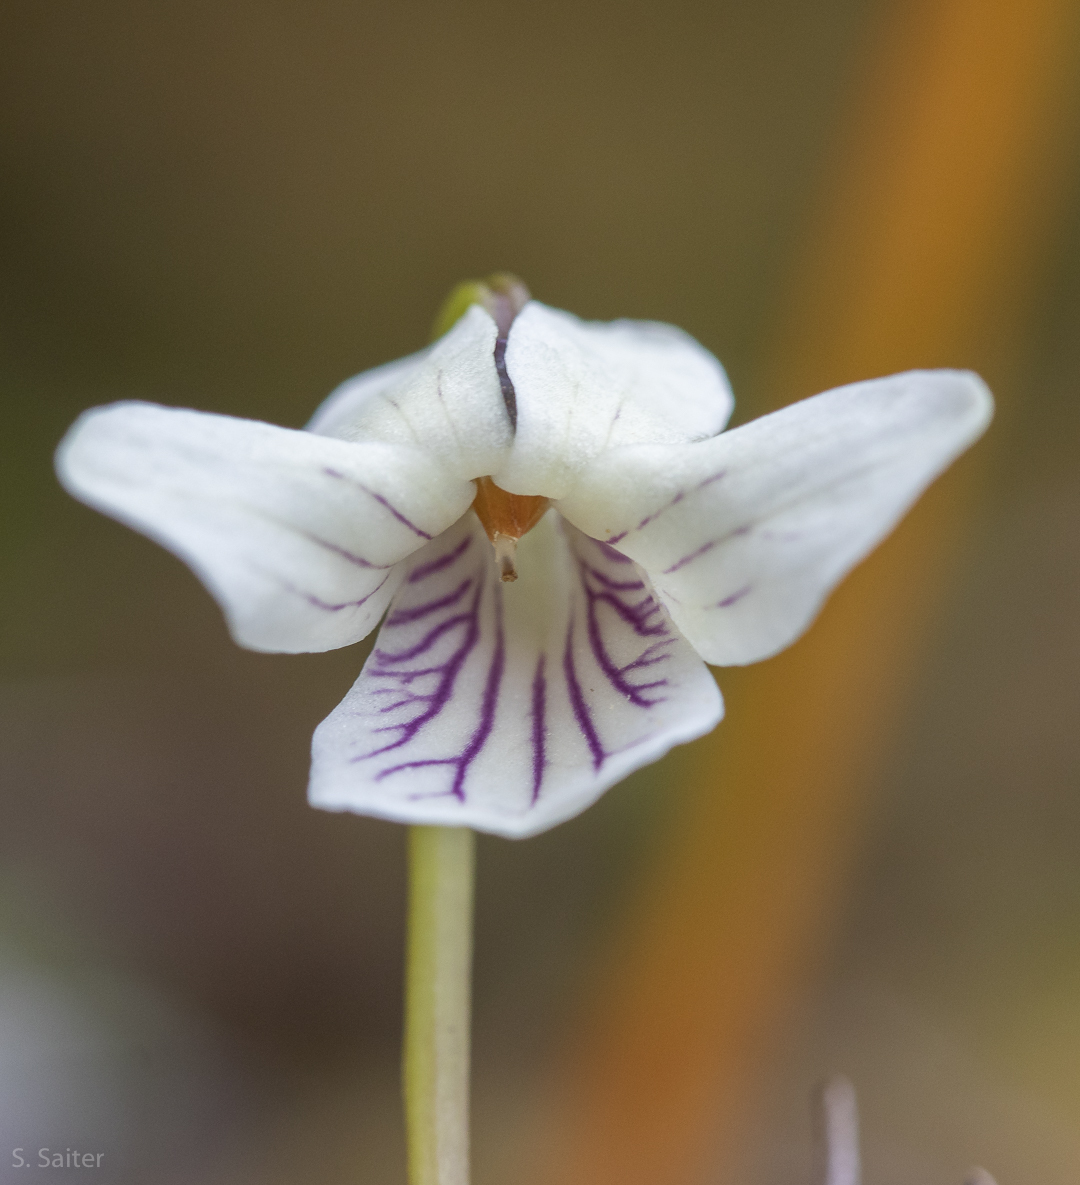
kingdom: Plantae
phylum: Tracheophyta
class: Magnoliopsida
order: Malpighiales
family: Violaceae
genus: Viola
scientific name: Viola commersonii
